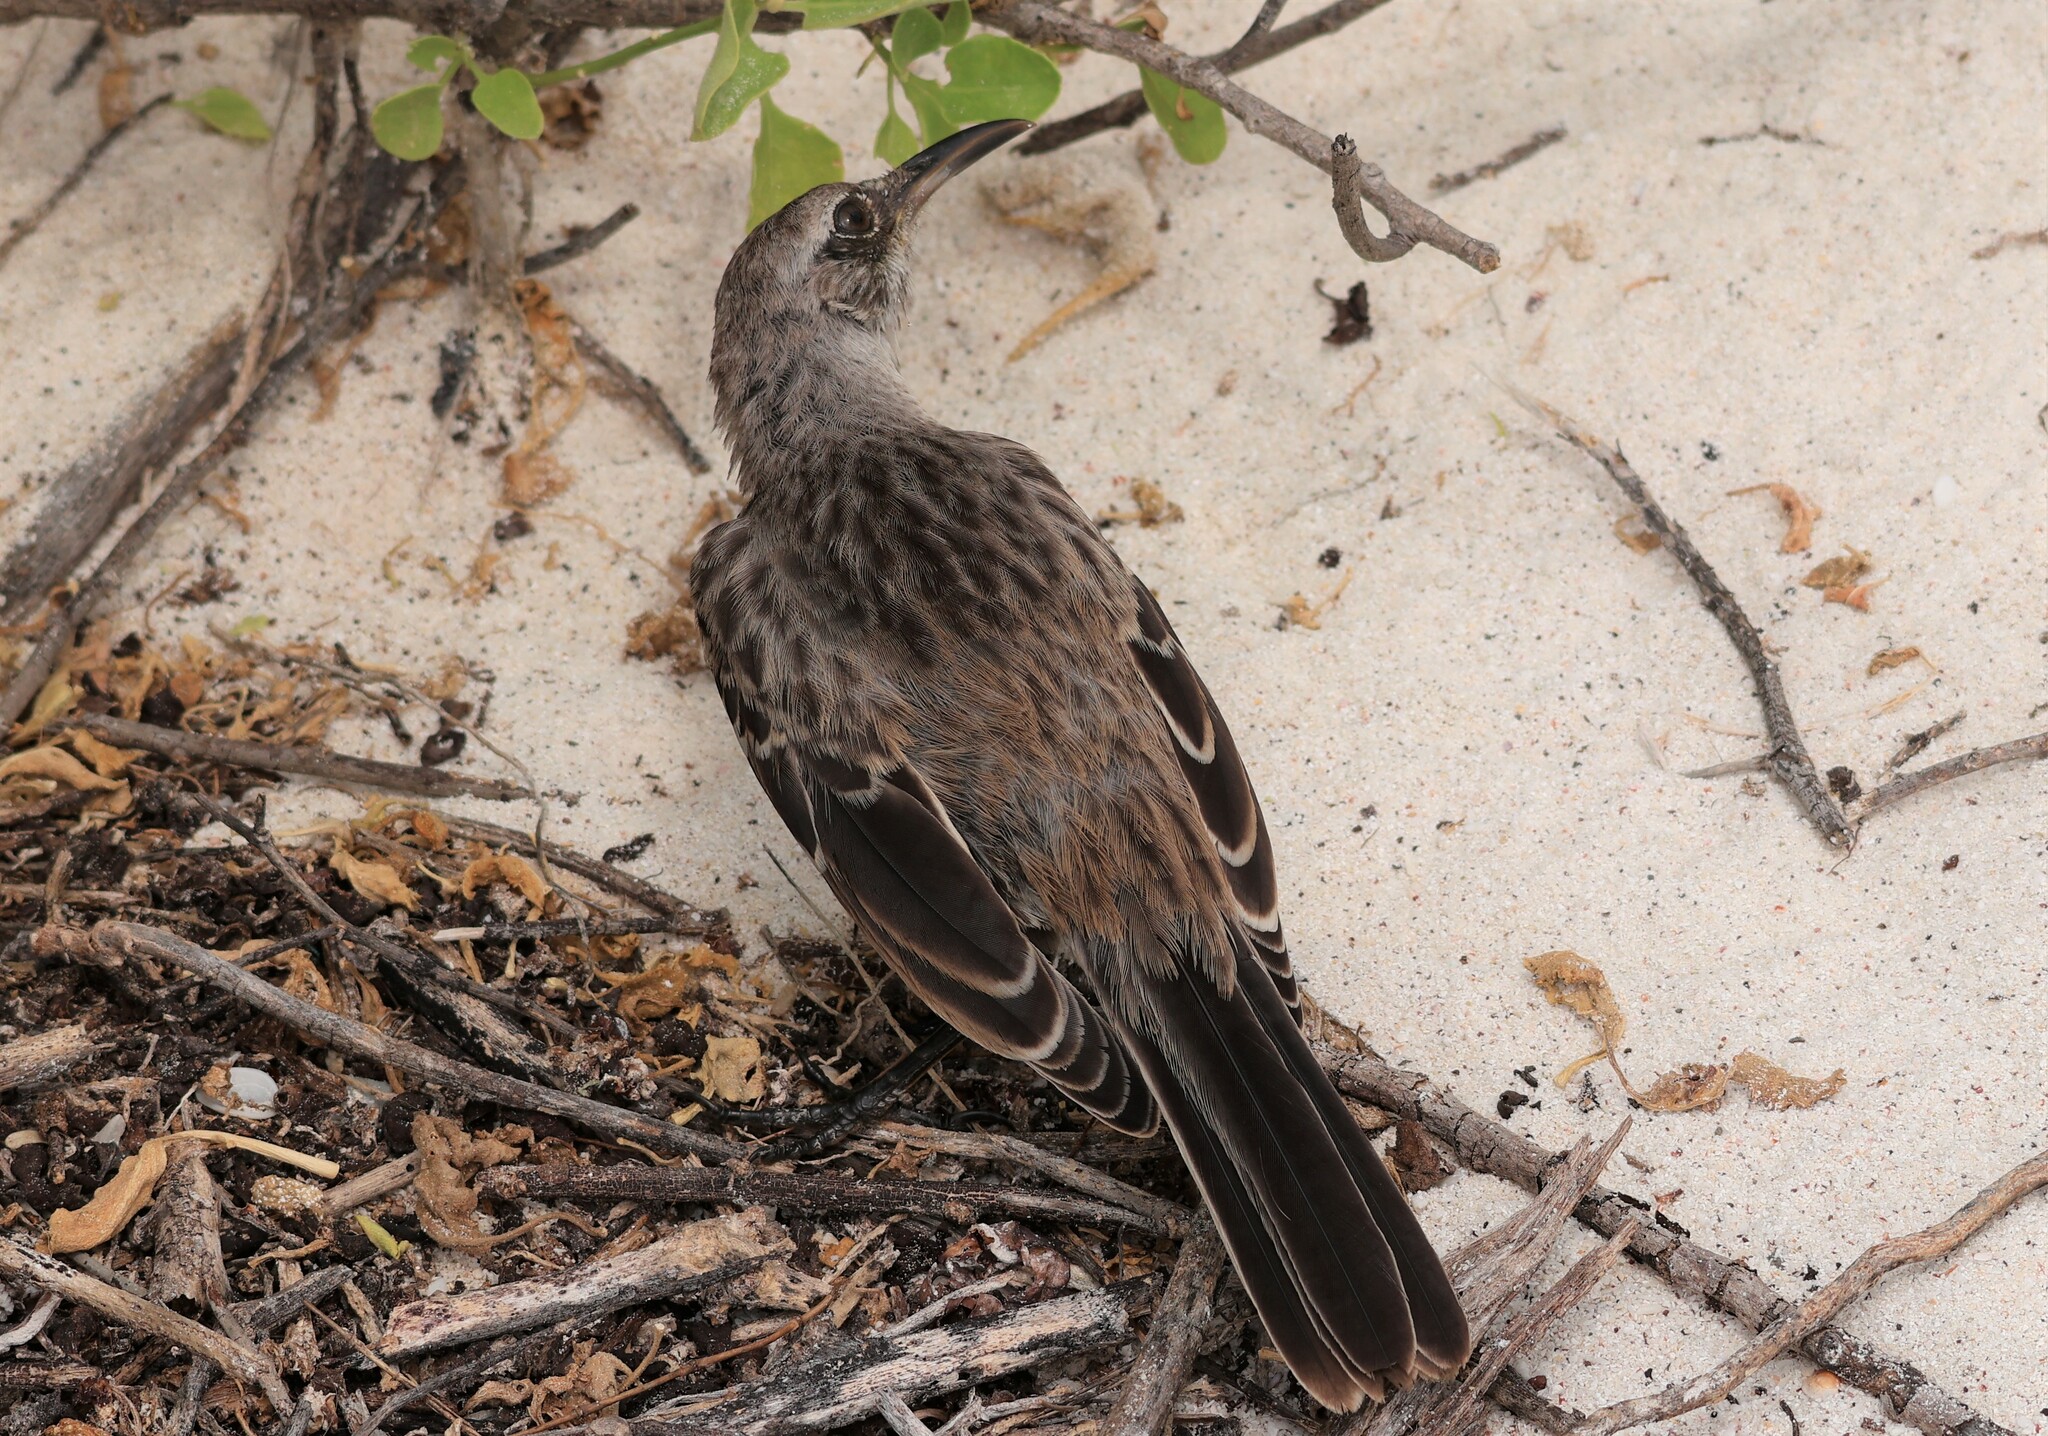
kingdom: Animalia
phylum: Chordata
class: Aves
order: Passeriformes
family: Mimidae
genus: Mimus
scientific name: Mimus macdonaldi
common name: Espanola mockingbird
